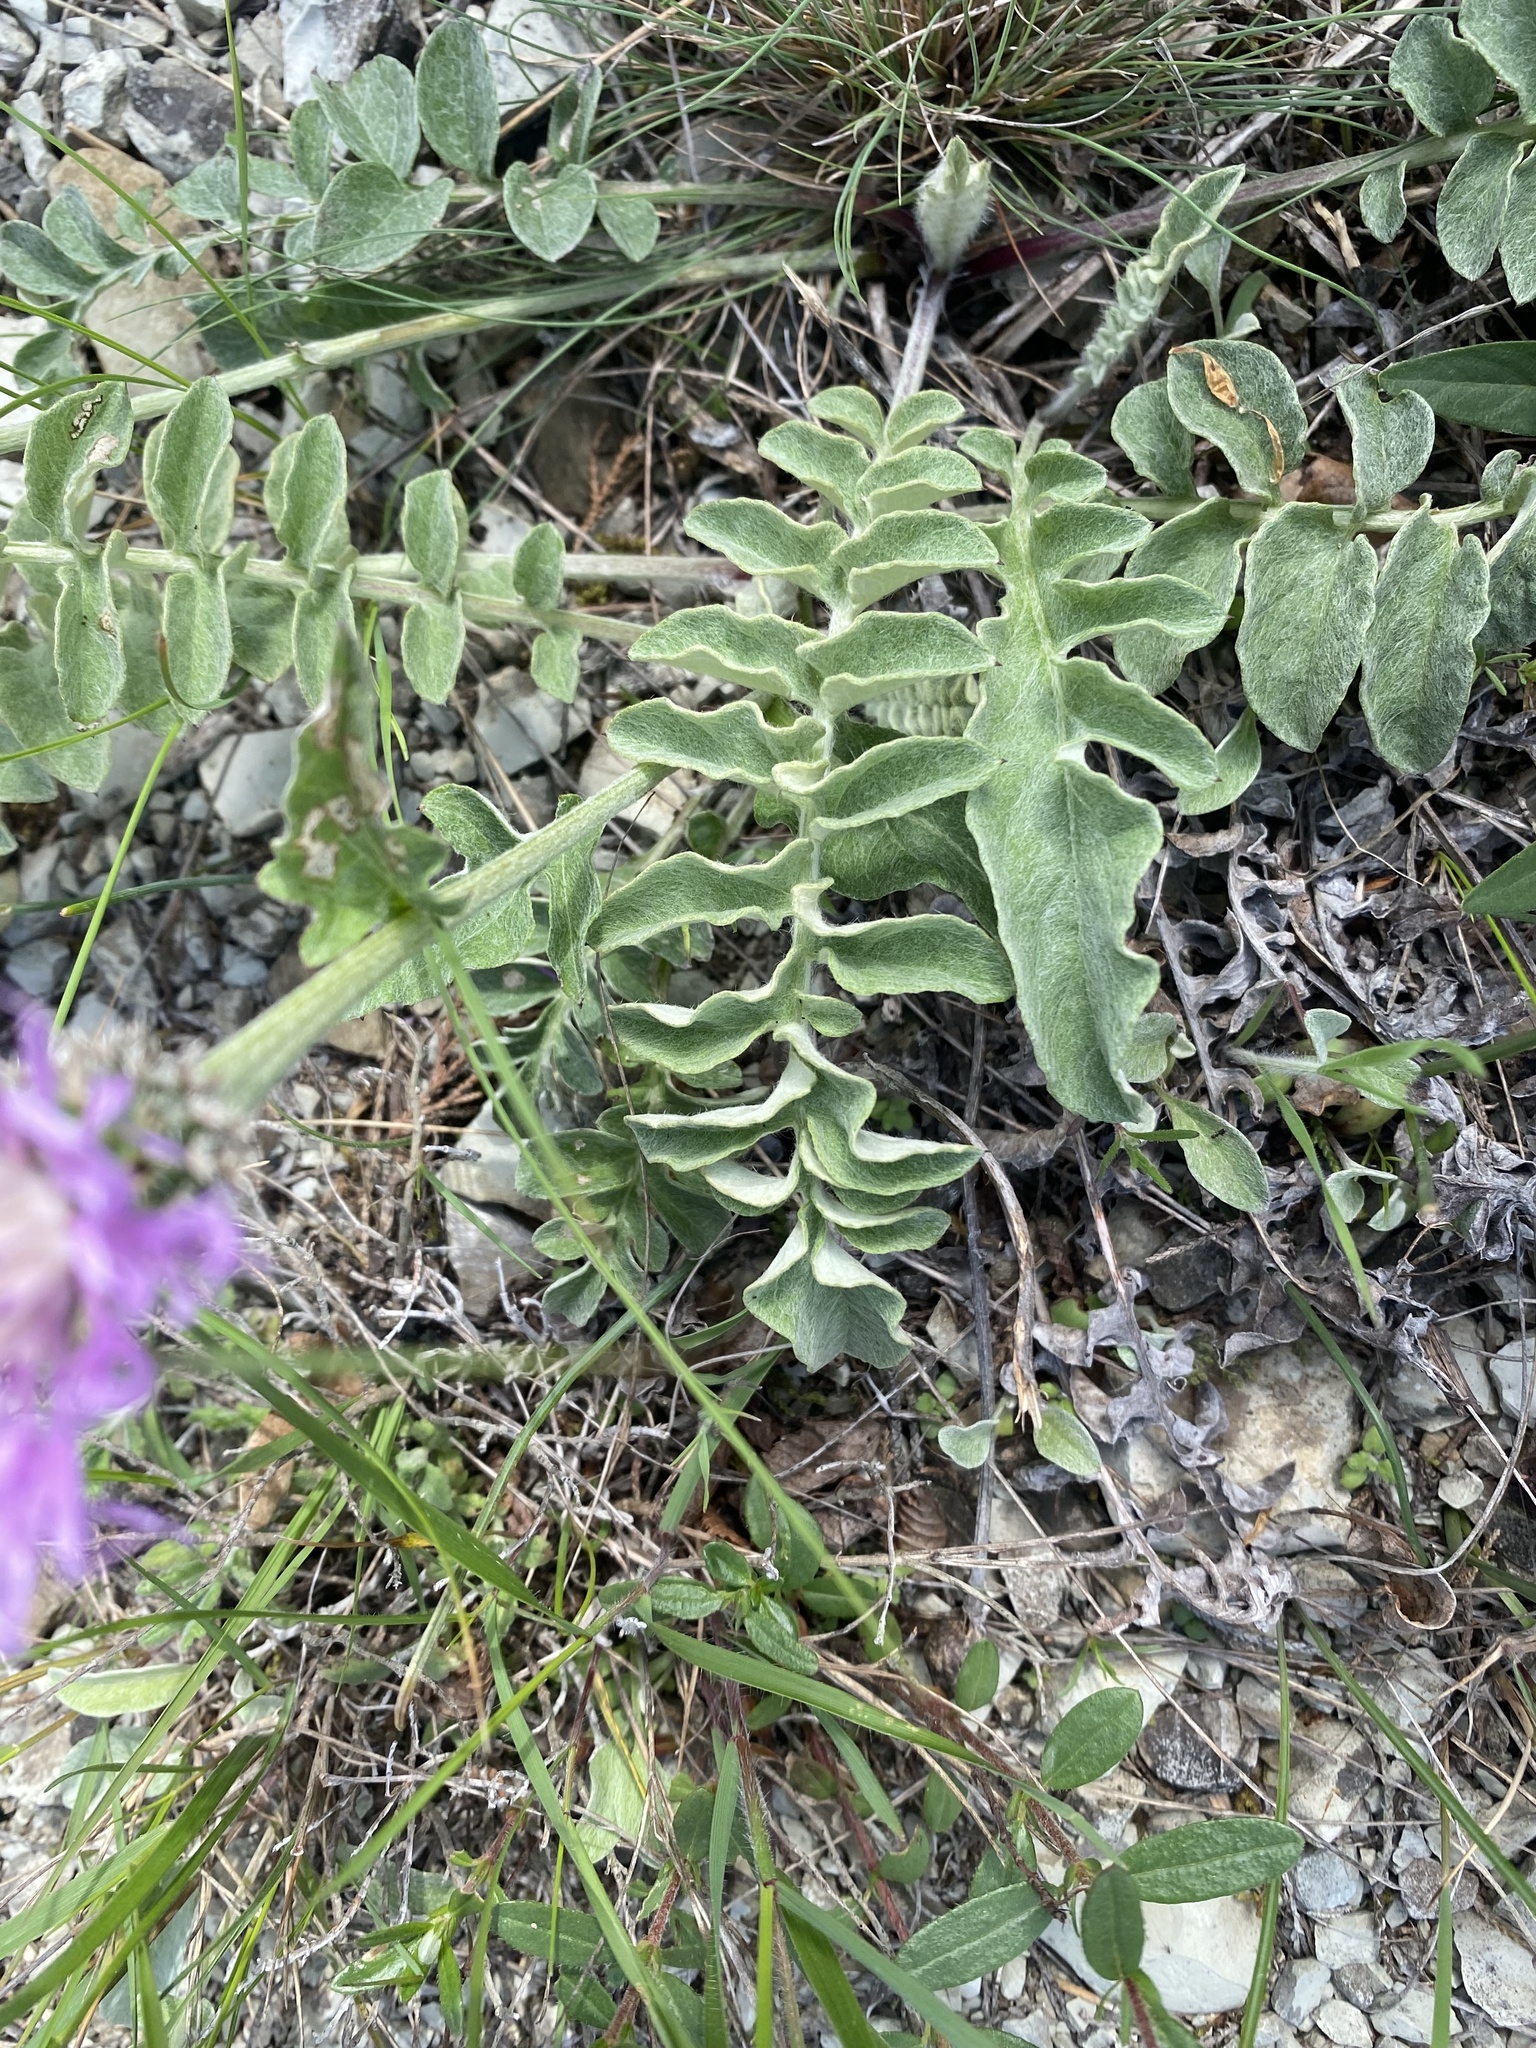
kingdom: Plantae
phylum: Tracheophyta
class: Magnoliopsida
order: Asterales
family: Asteraceae
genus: Psephellus
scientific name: Psephellus declinatus
